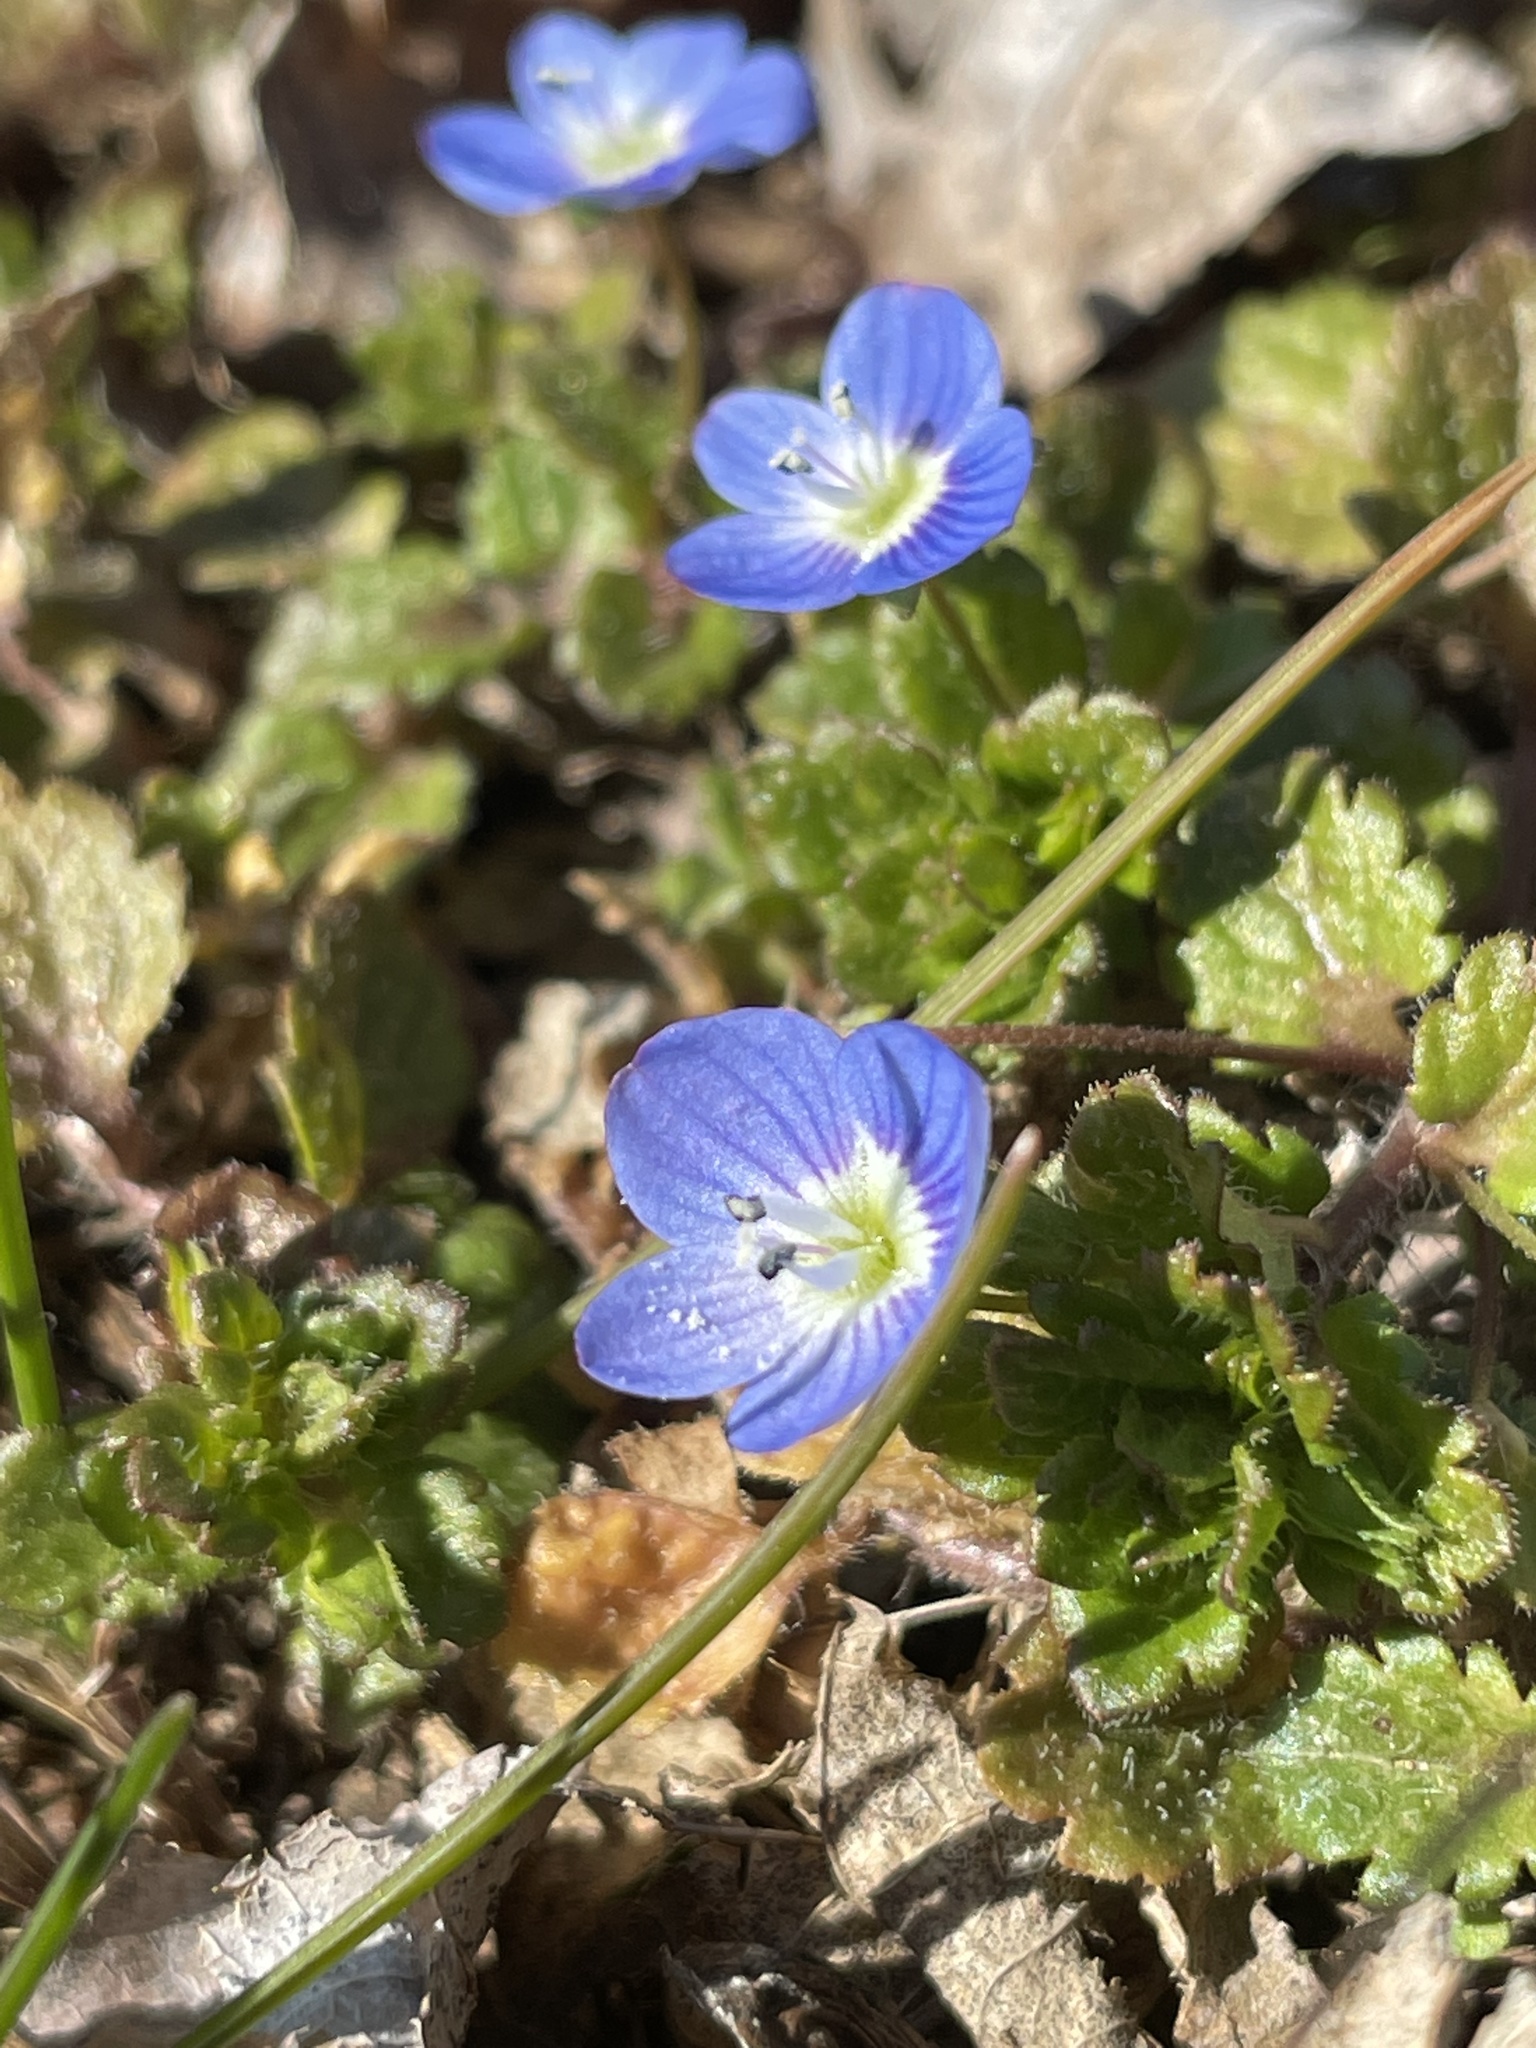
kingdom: Plantae
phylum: Tracheophyta
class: Magnoliopsida
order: Lamiales
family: Plantaginaceae
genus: Veronica
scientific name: Veronica persica
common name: Common field-speedwell
